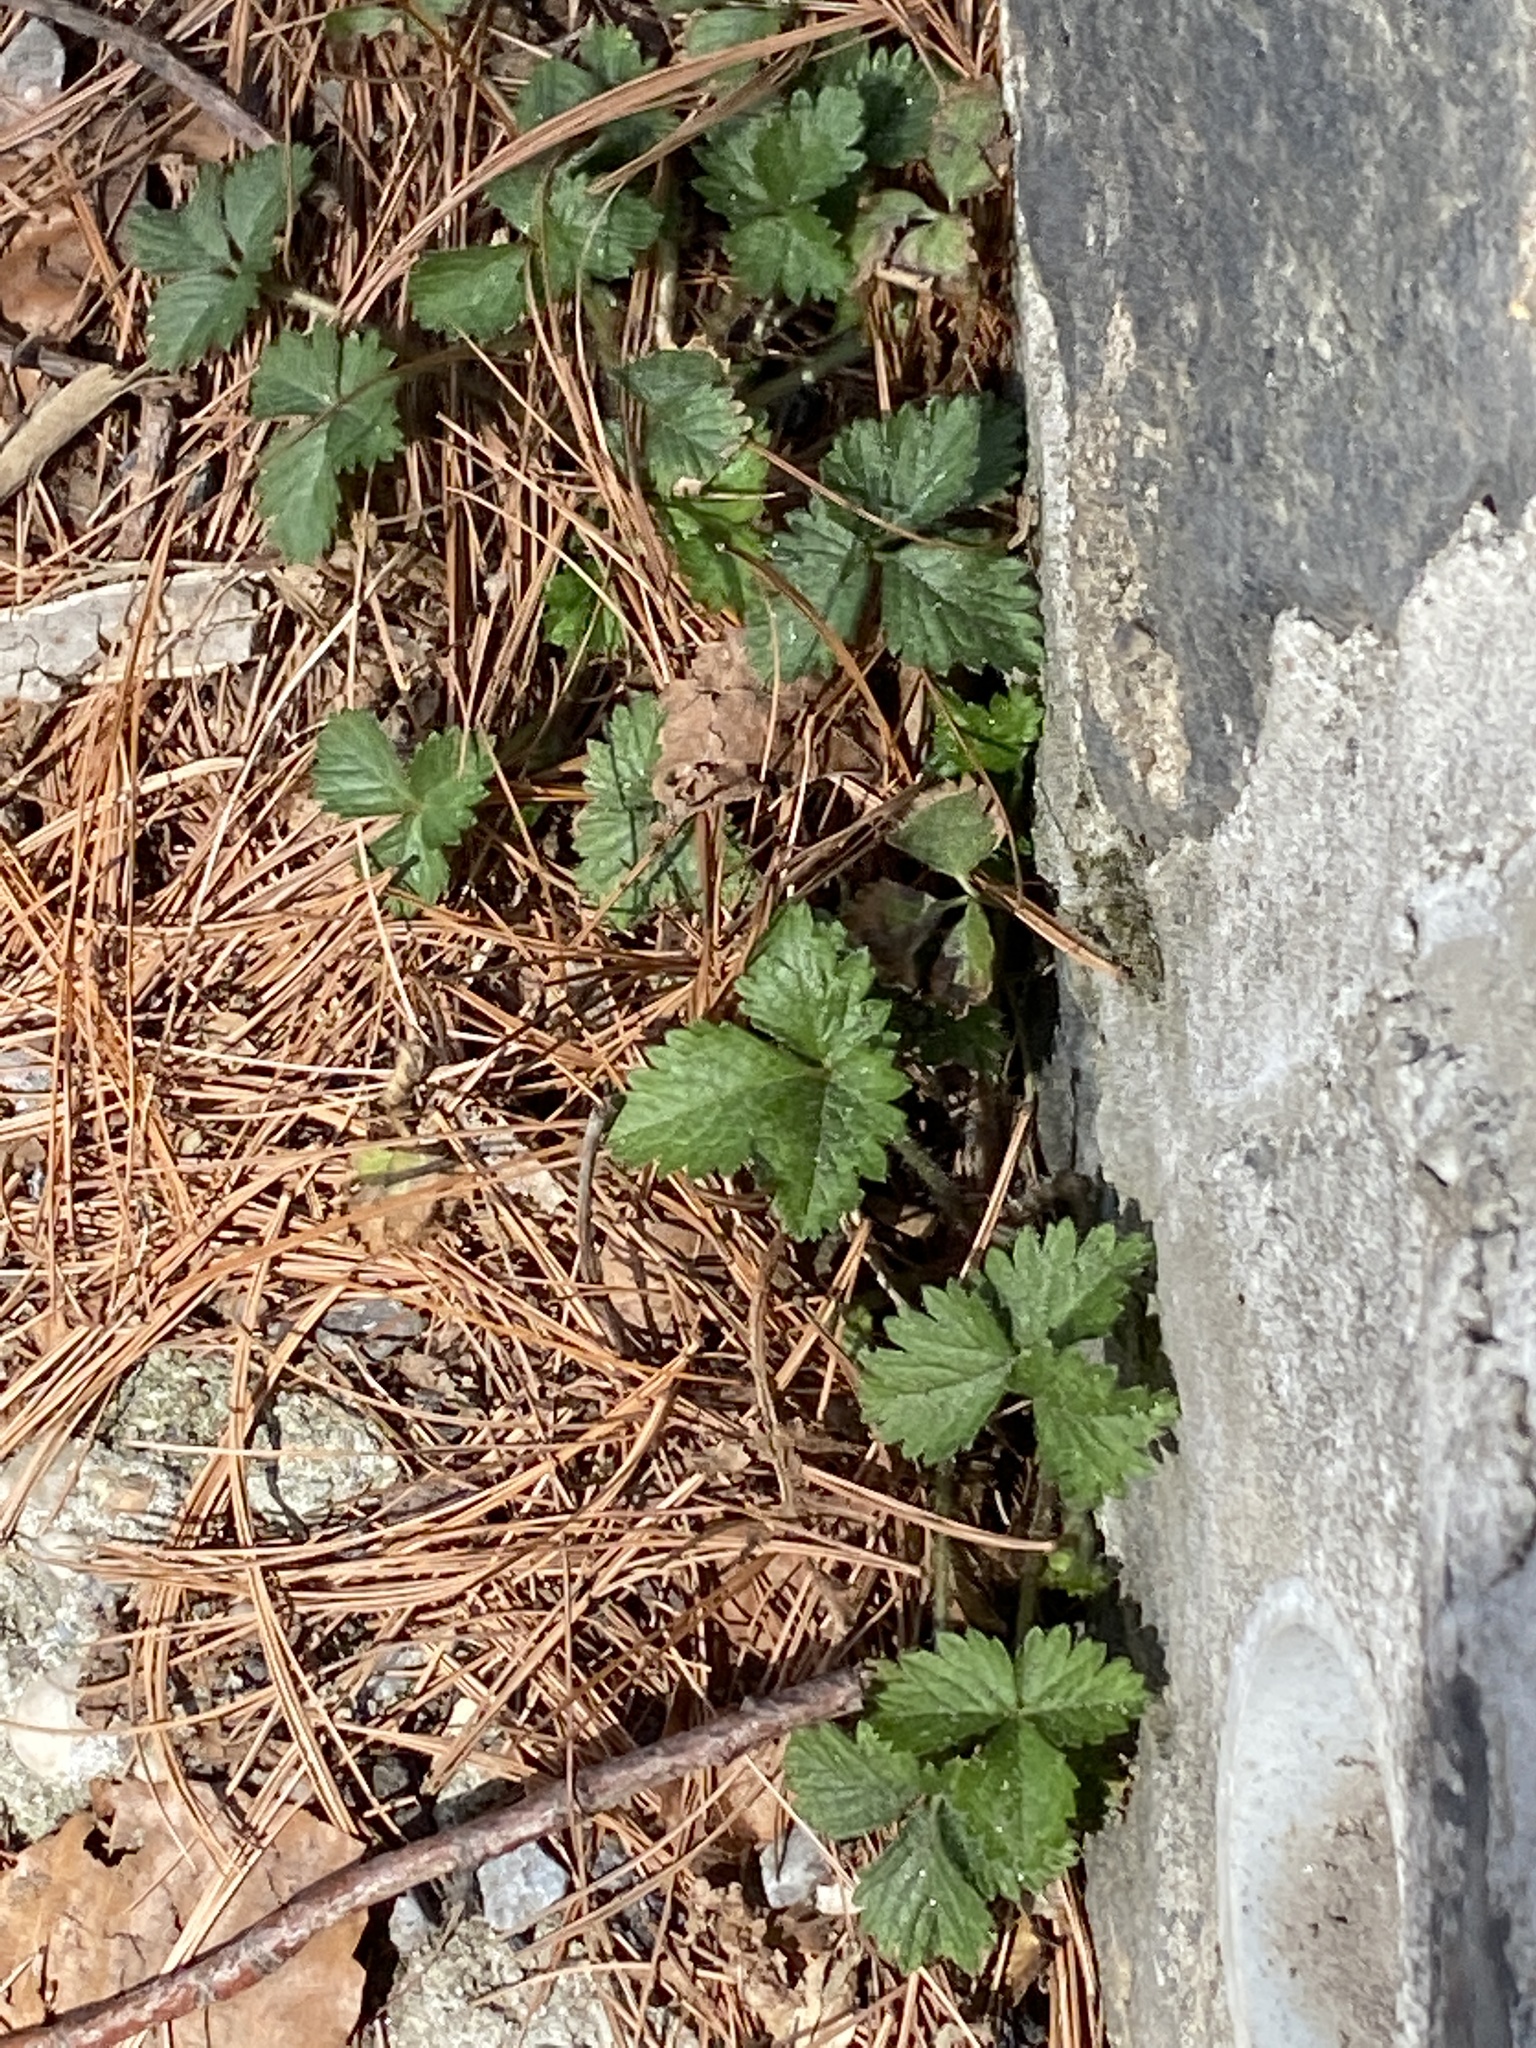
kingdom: Plantae
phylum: Tracheophyta
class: Magnoliopsida
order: Rosales
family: Rosaceae
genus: Potentilla
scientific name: Potentilla indica
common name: Yellow-flowered strawberry
